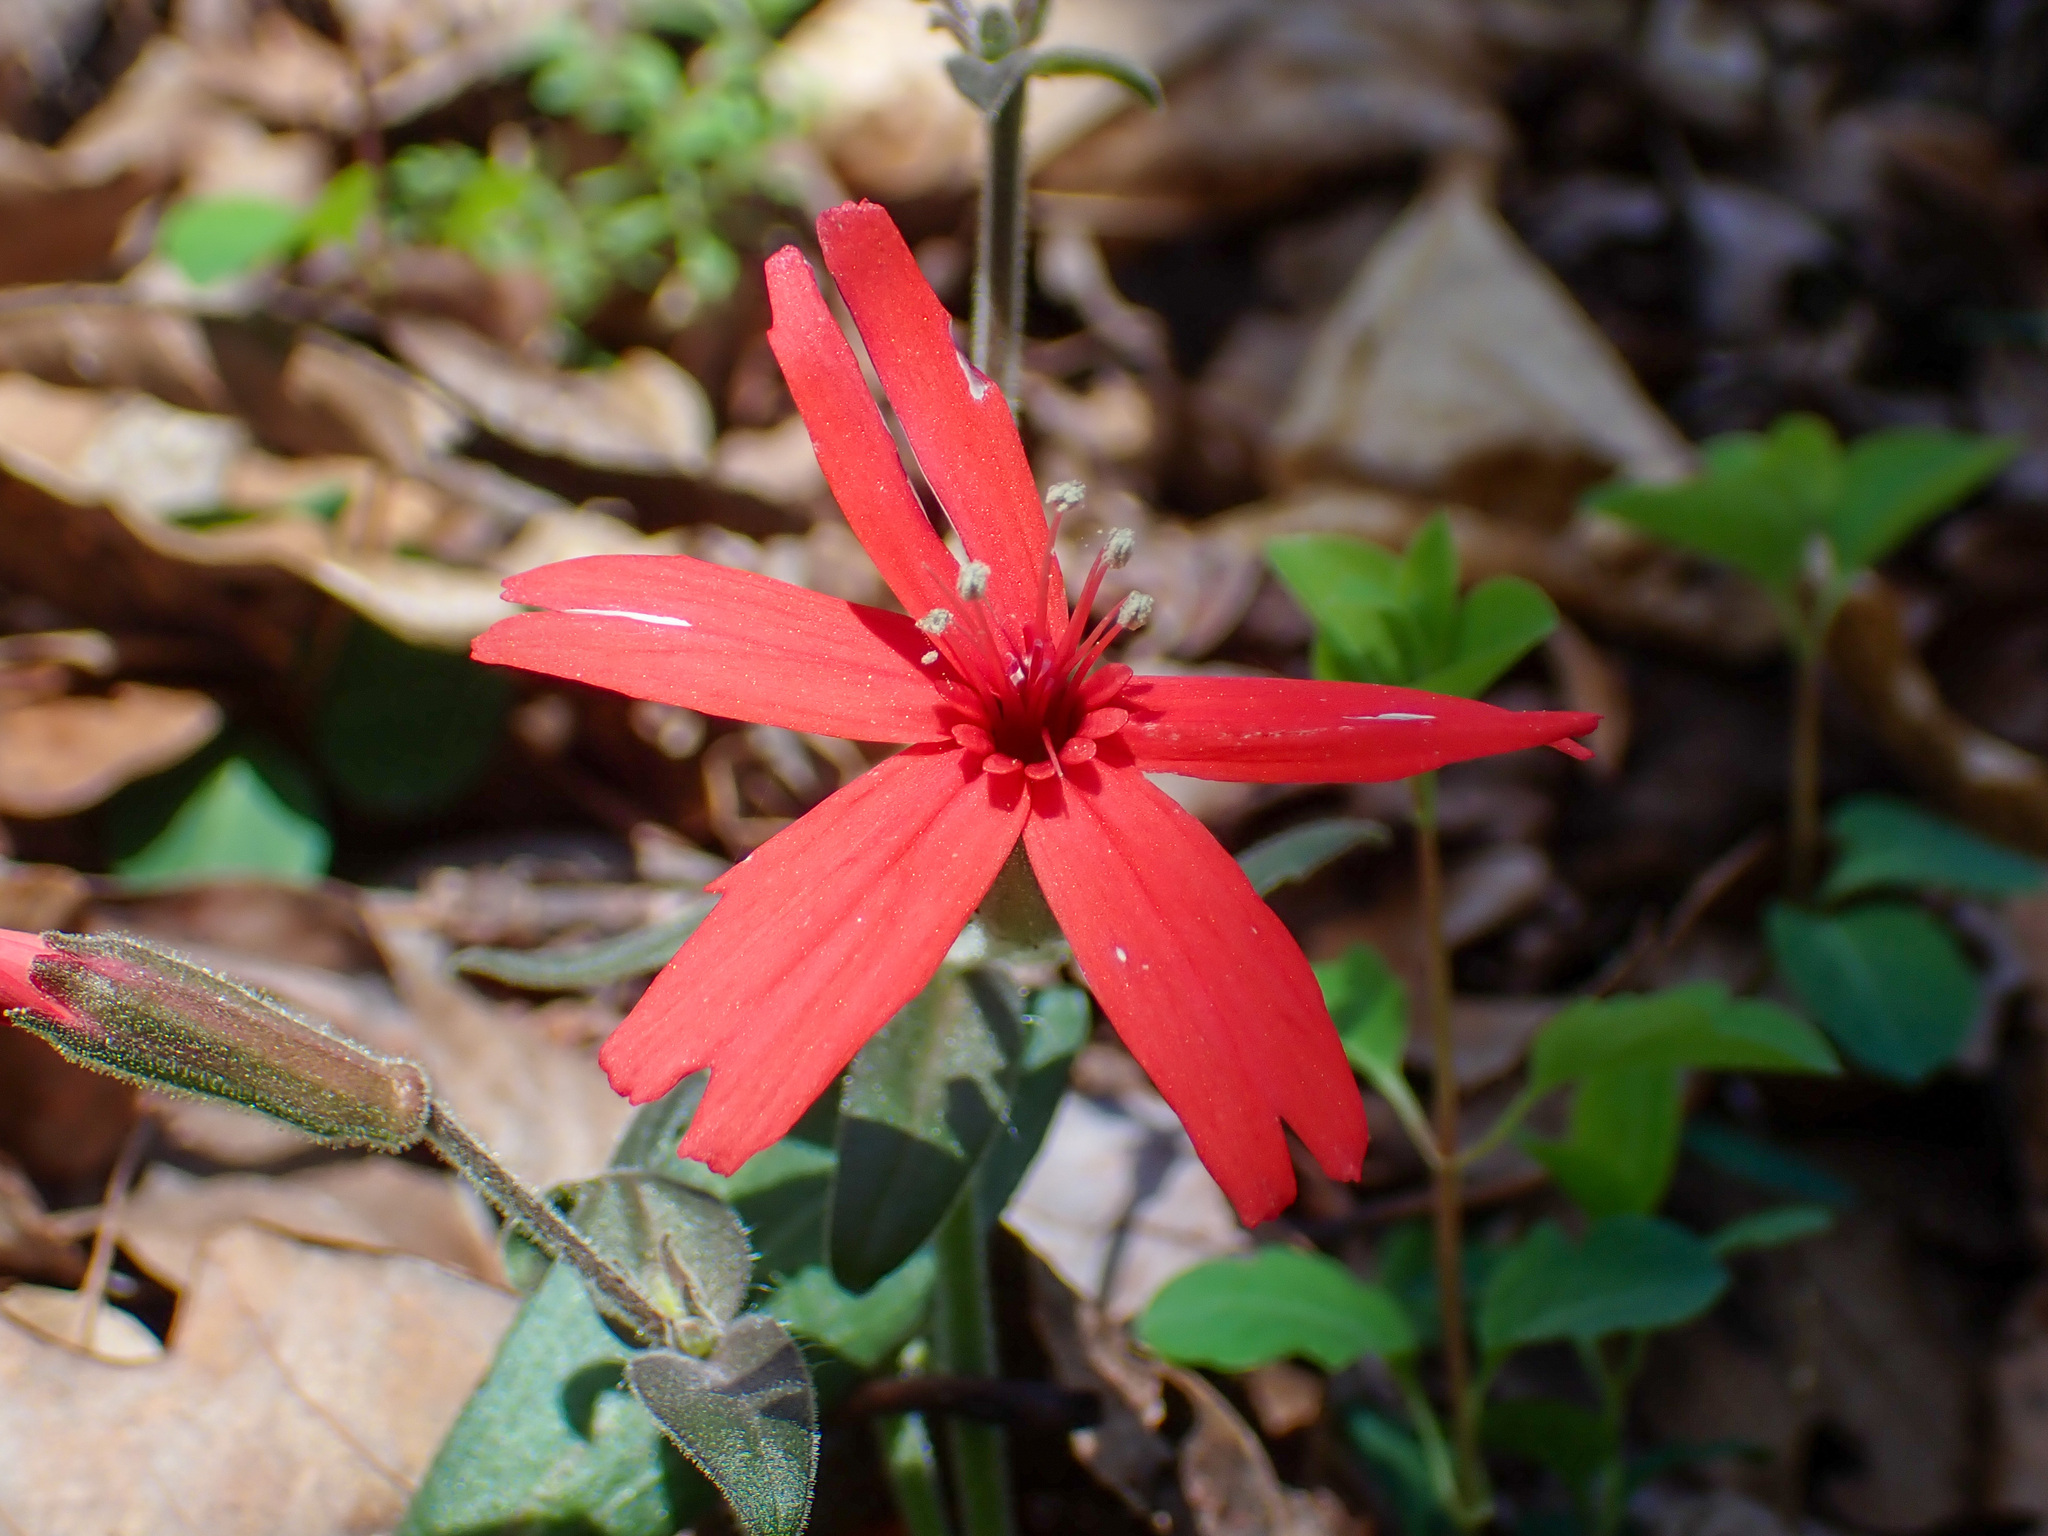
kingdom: Plantae
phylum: Tracheophyta
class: Magnoliopsida
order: Caryophyllales
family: Caryophyllaceae
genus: Silene
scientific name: Silene virginica
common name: Fire-pink
